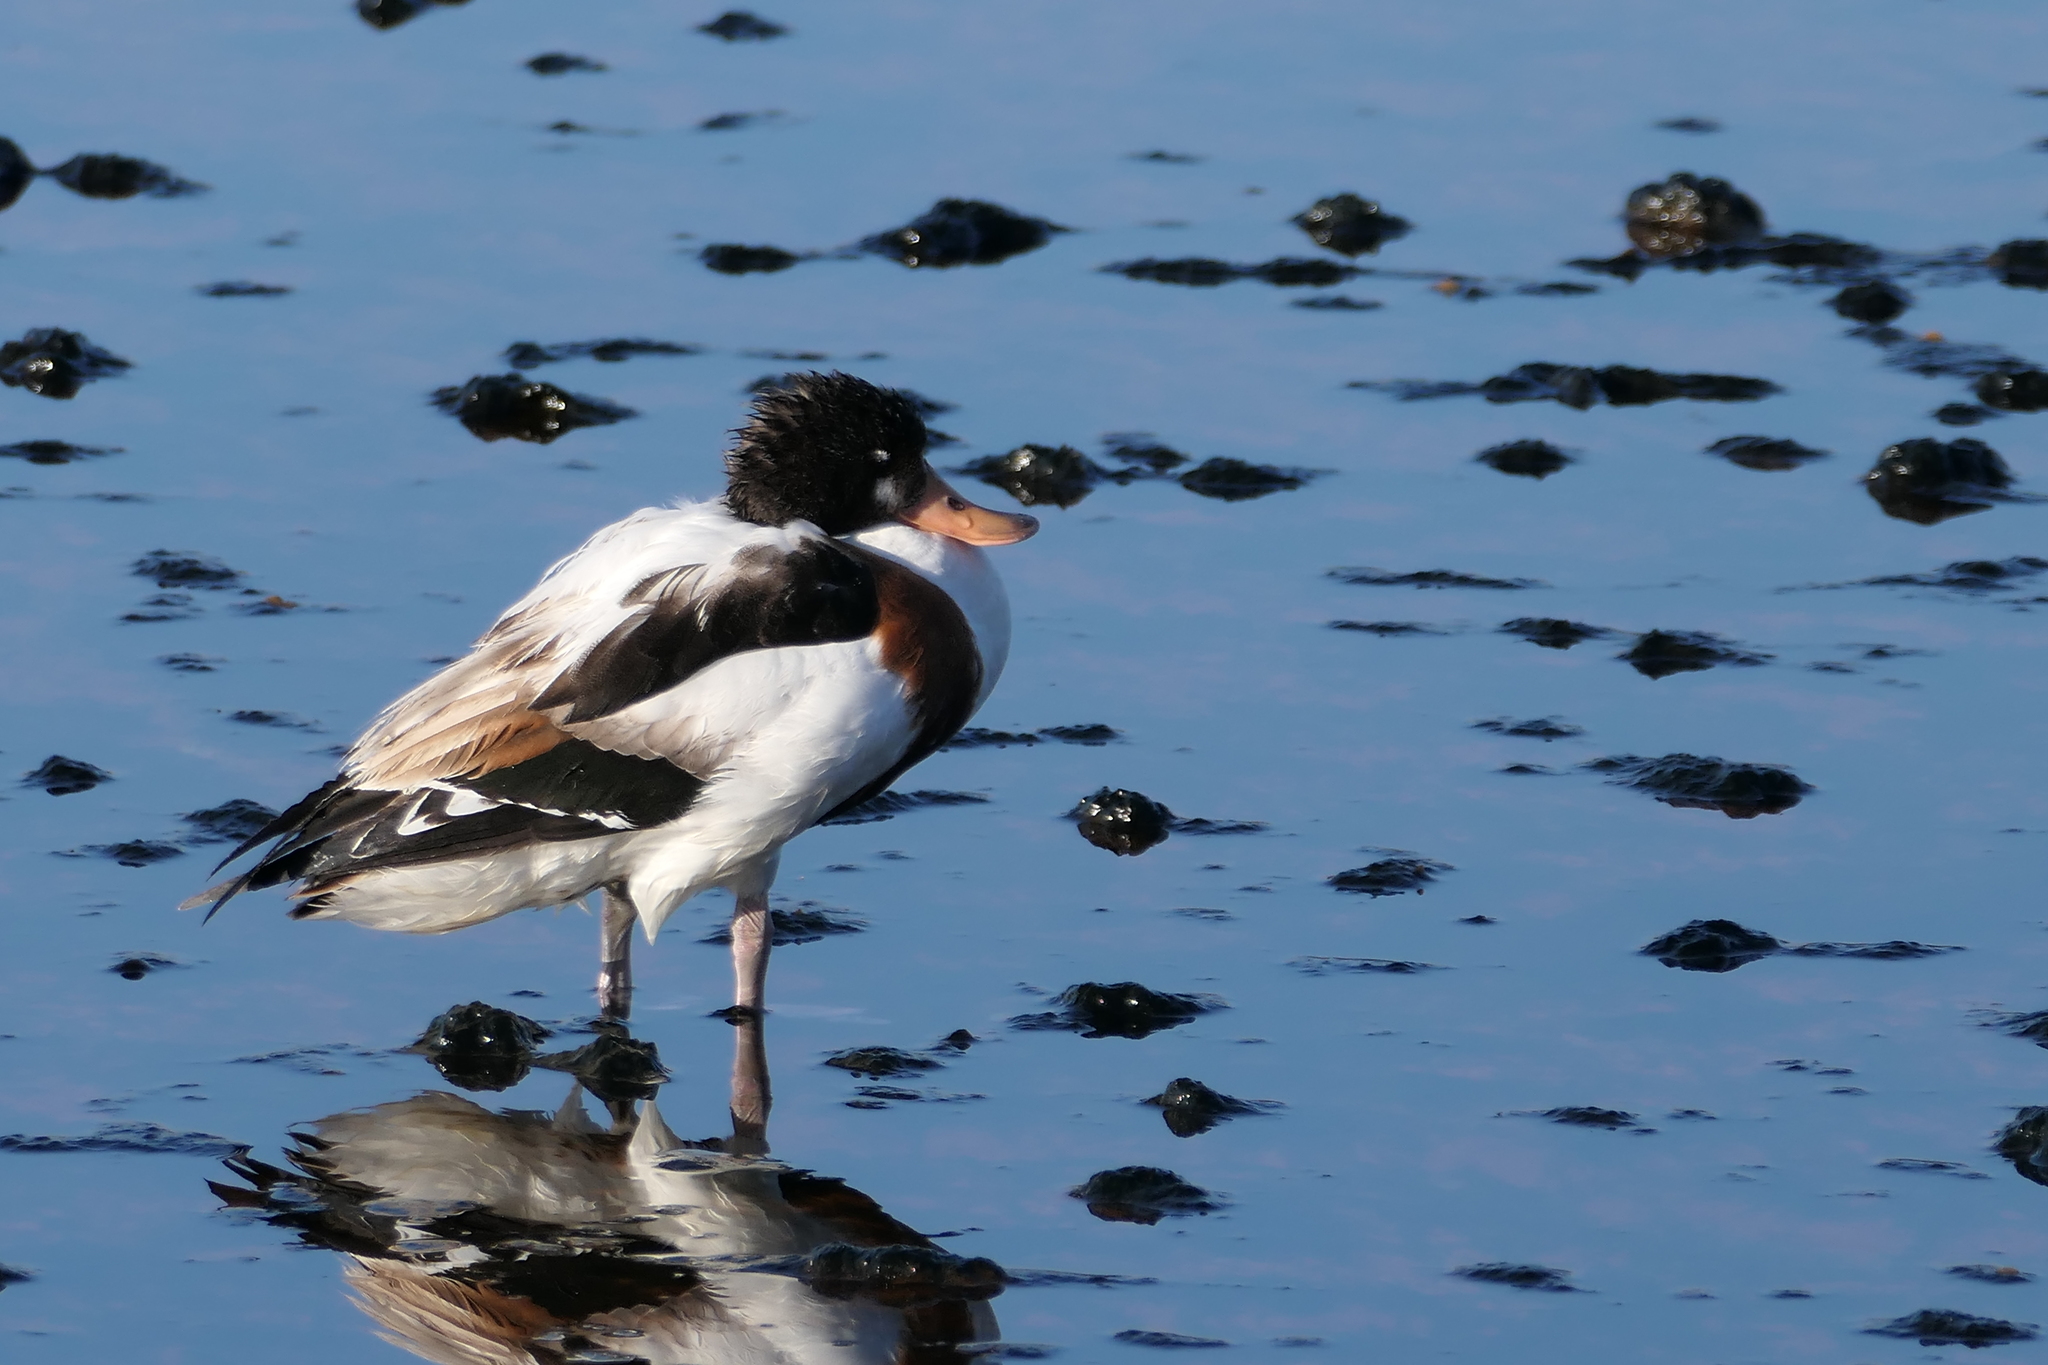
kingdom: Animalia
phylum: Chordata
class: Aves
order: Anseriformes
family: Anatidae
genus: Tadorna
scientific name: Tadorna tadorna
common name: Common shelduck
